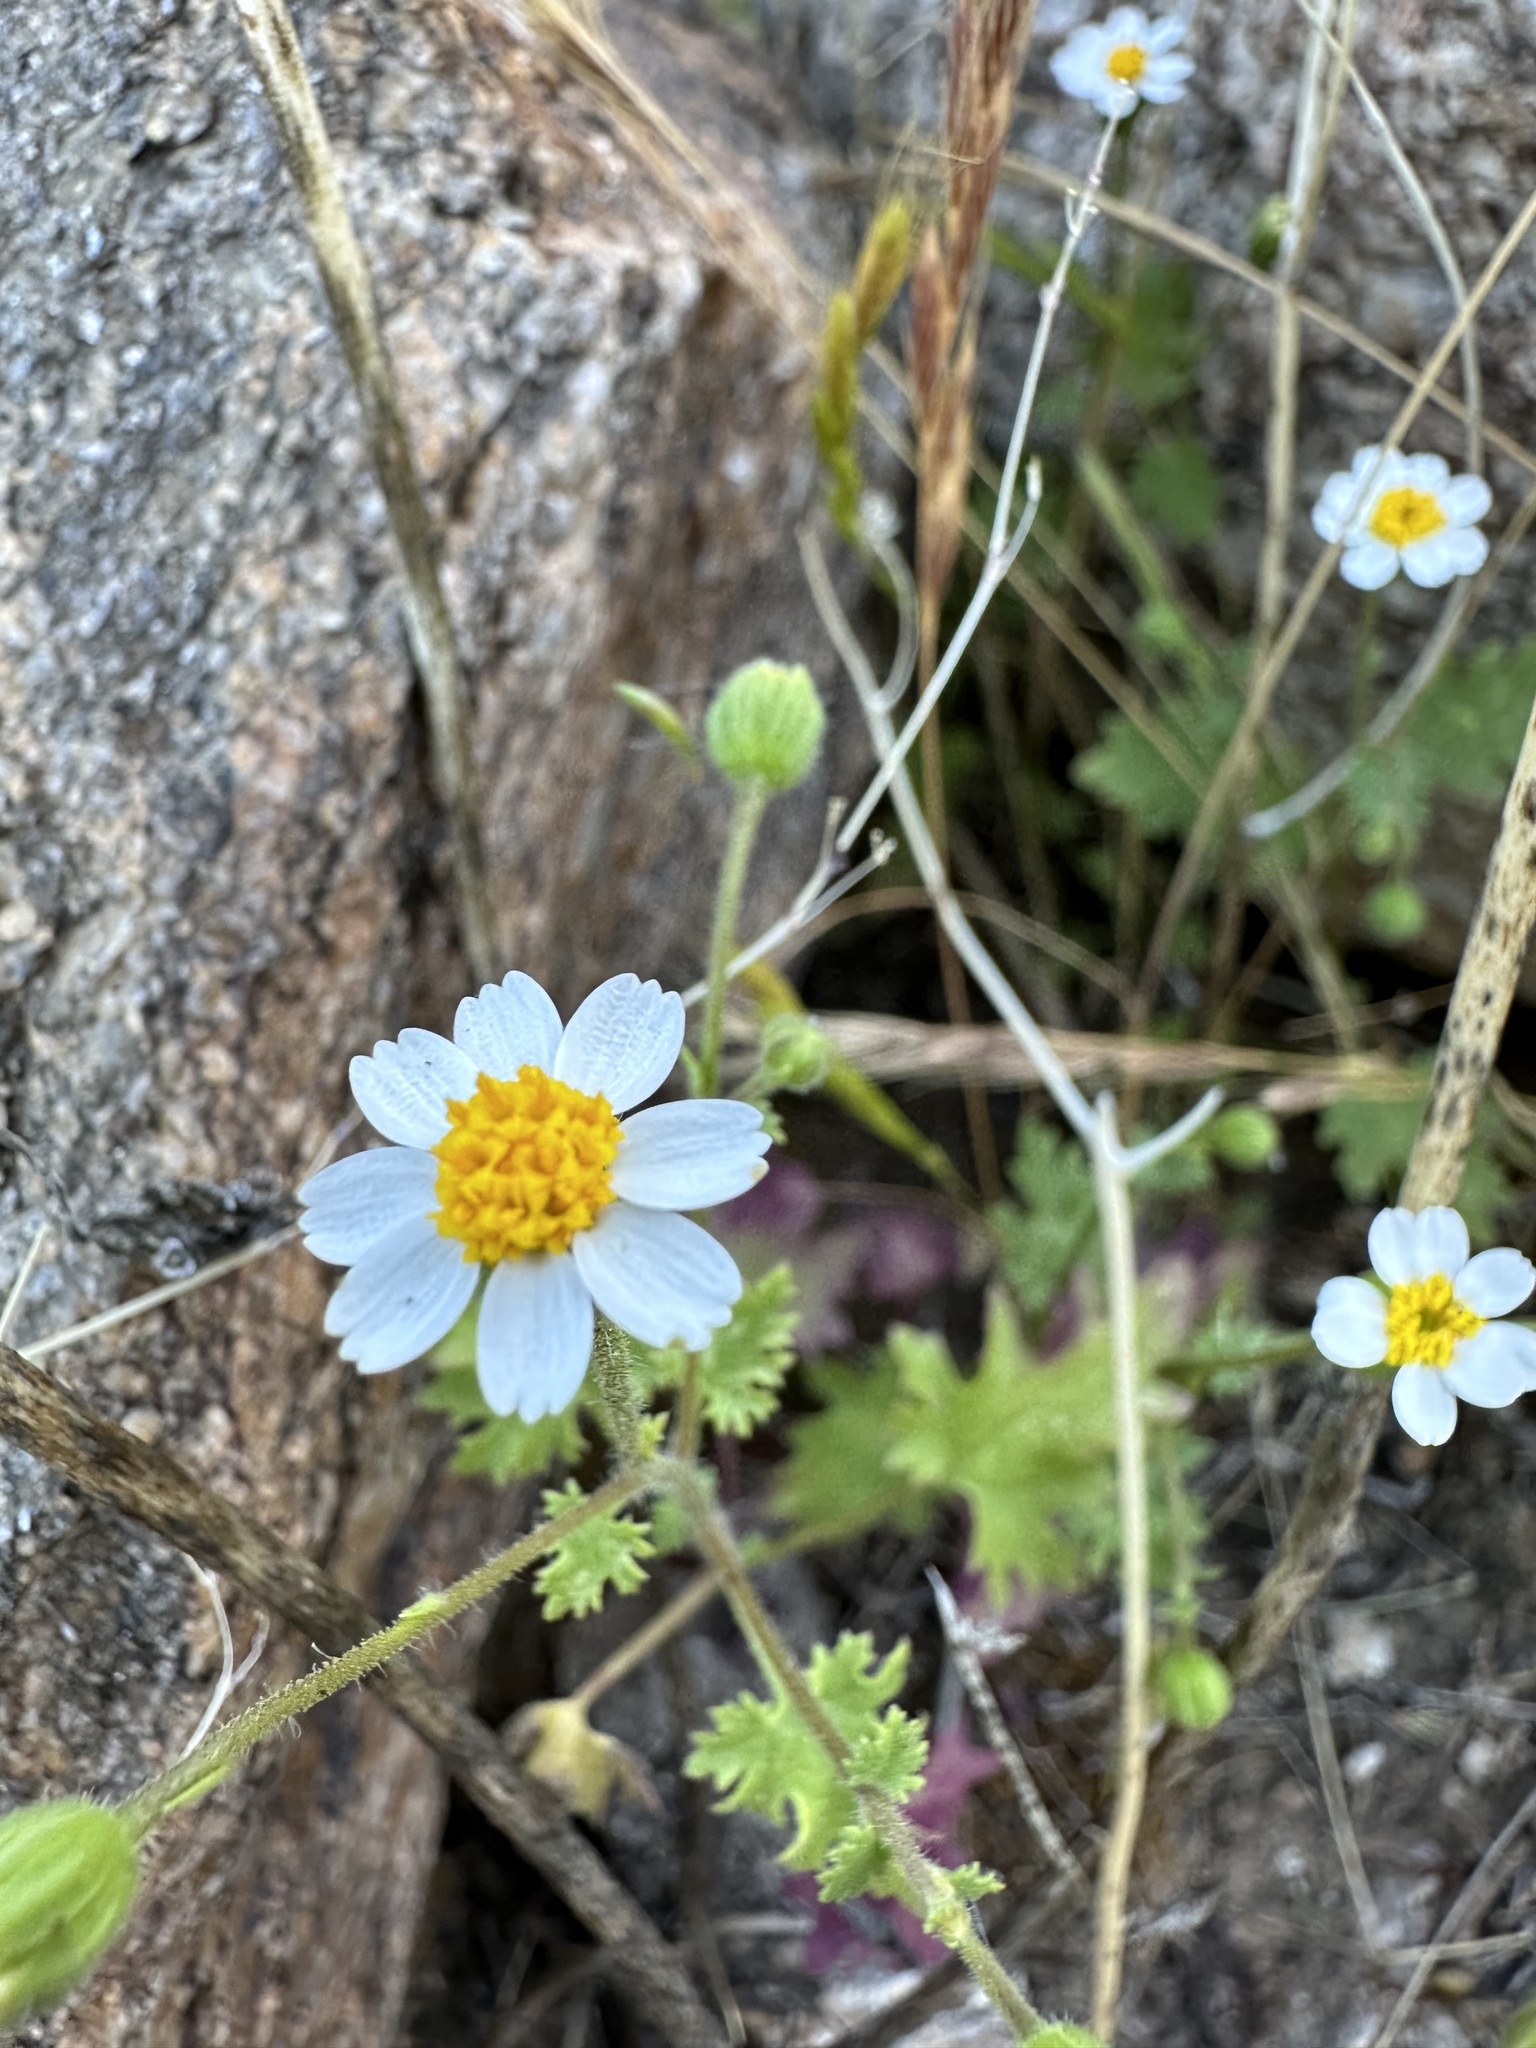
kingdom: Plantae
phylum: Tracheophyta
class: Magnoliopsida
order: Asterales
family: Asteraceae
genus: Laphamia
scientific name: Laphamia emoryi
